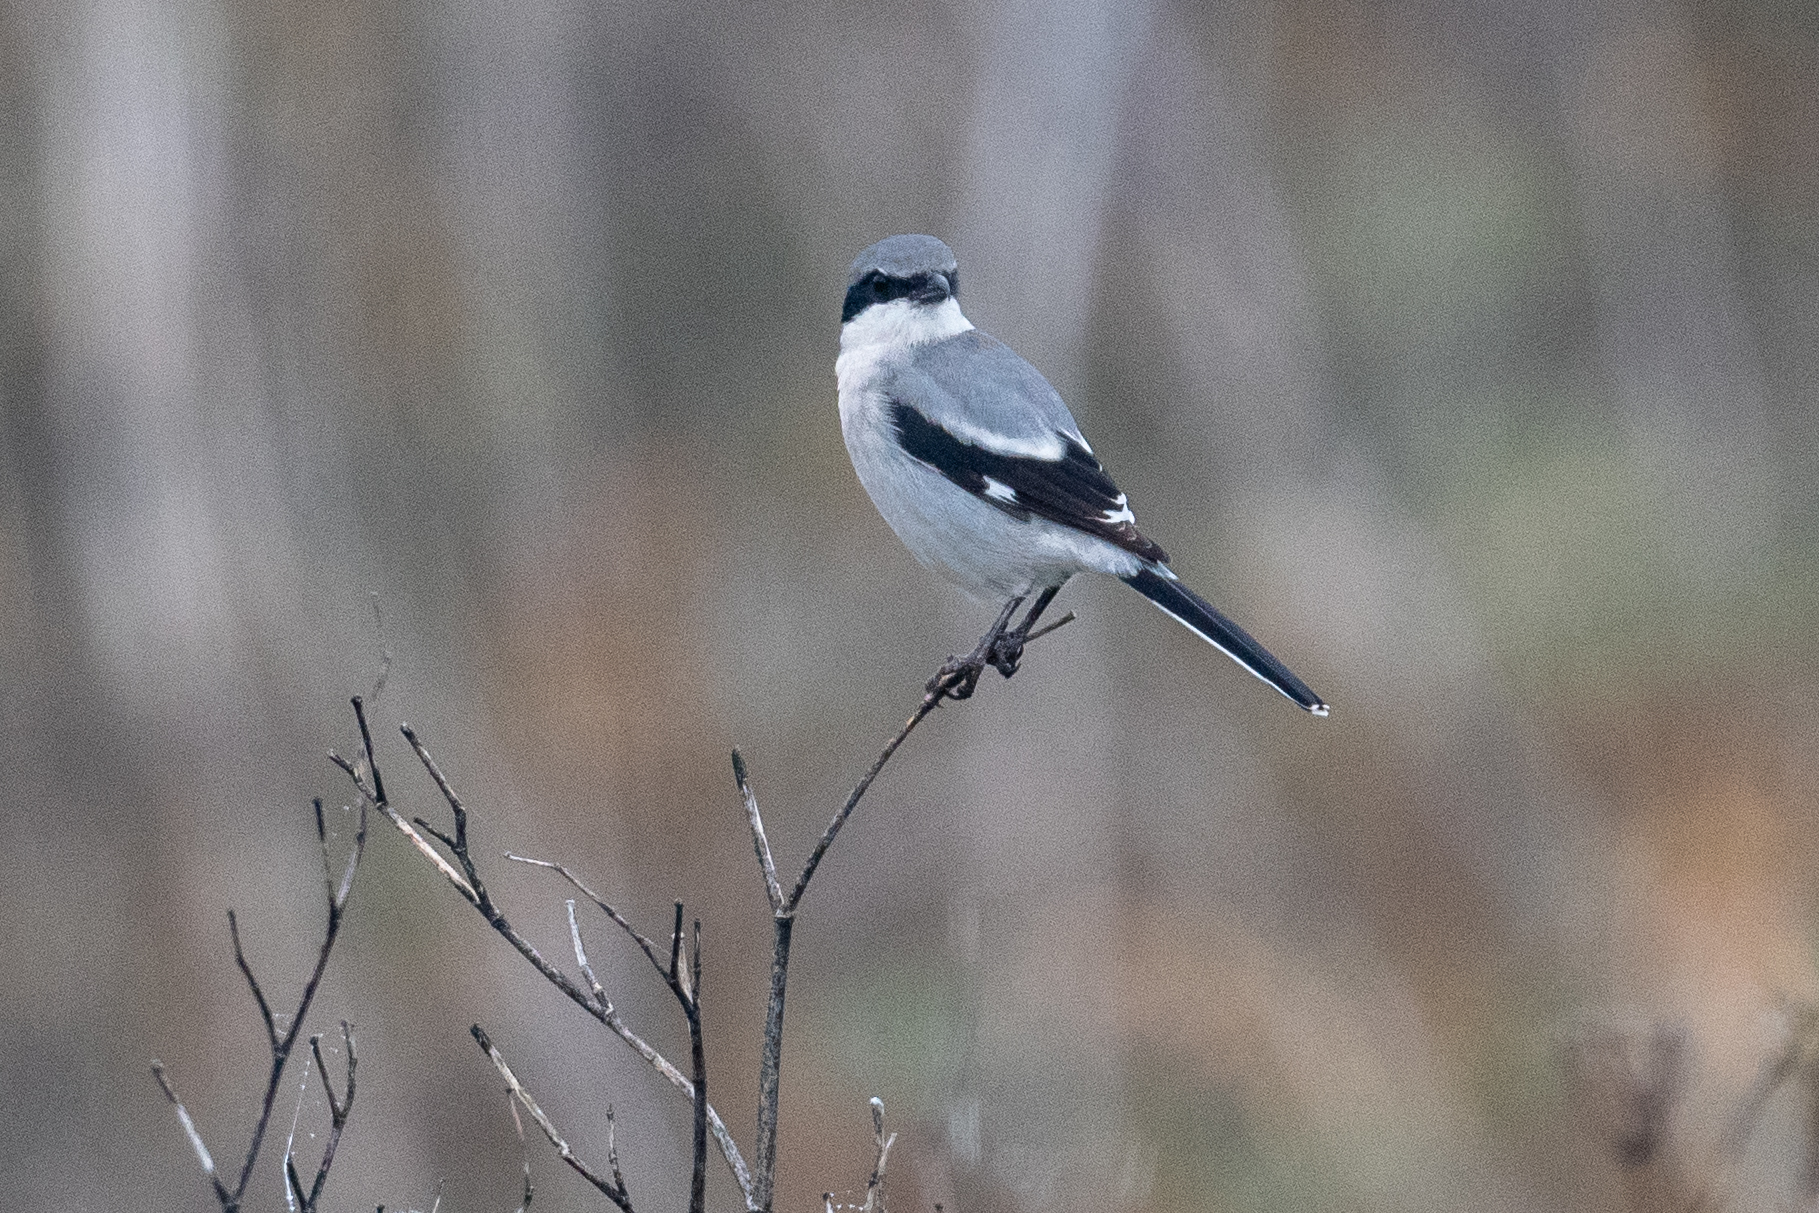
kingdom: Animalia
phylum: Chordata
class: Aves
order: Passeriformes
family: Laniidae
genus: Lanius
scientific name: Lanius ludovicianus
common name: Loggerhead shrike
